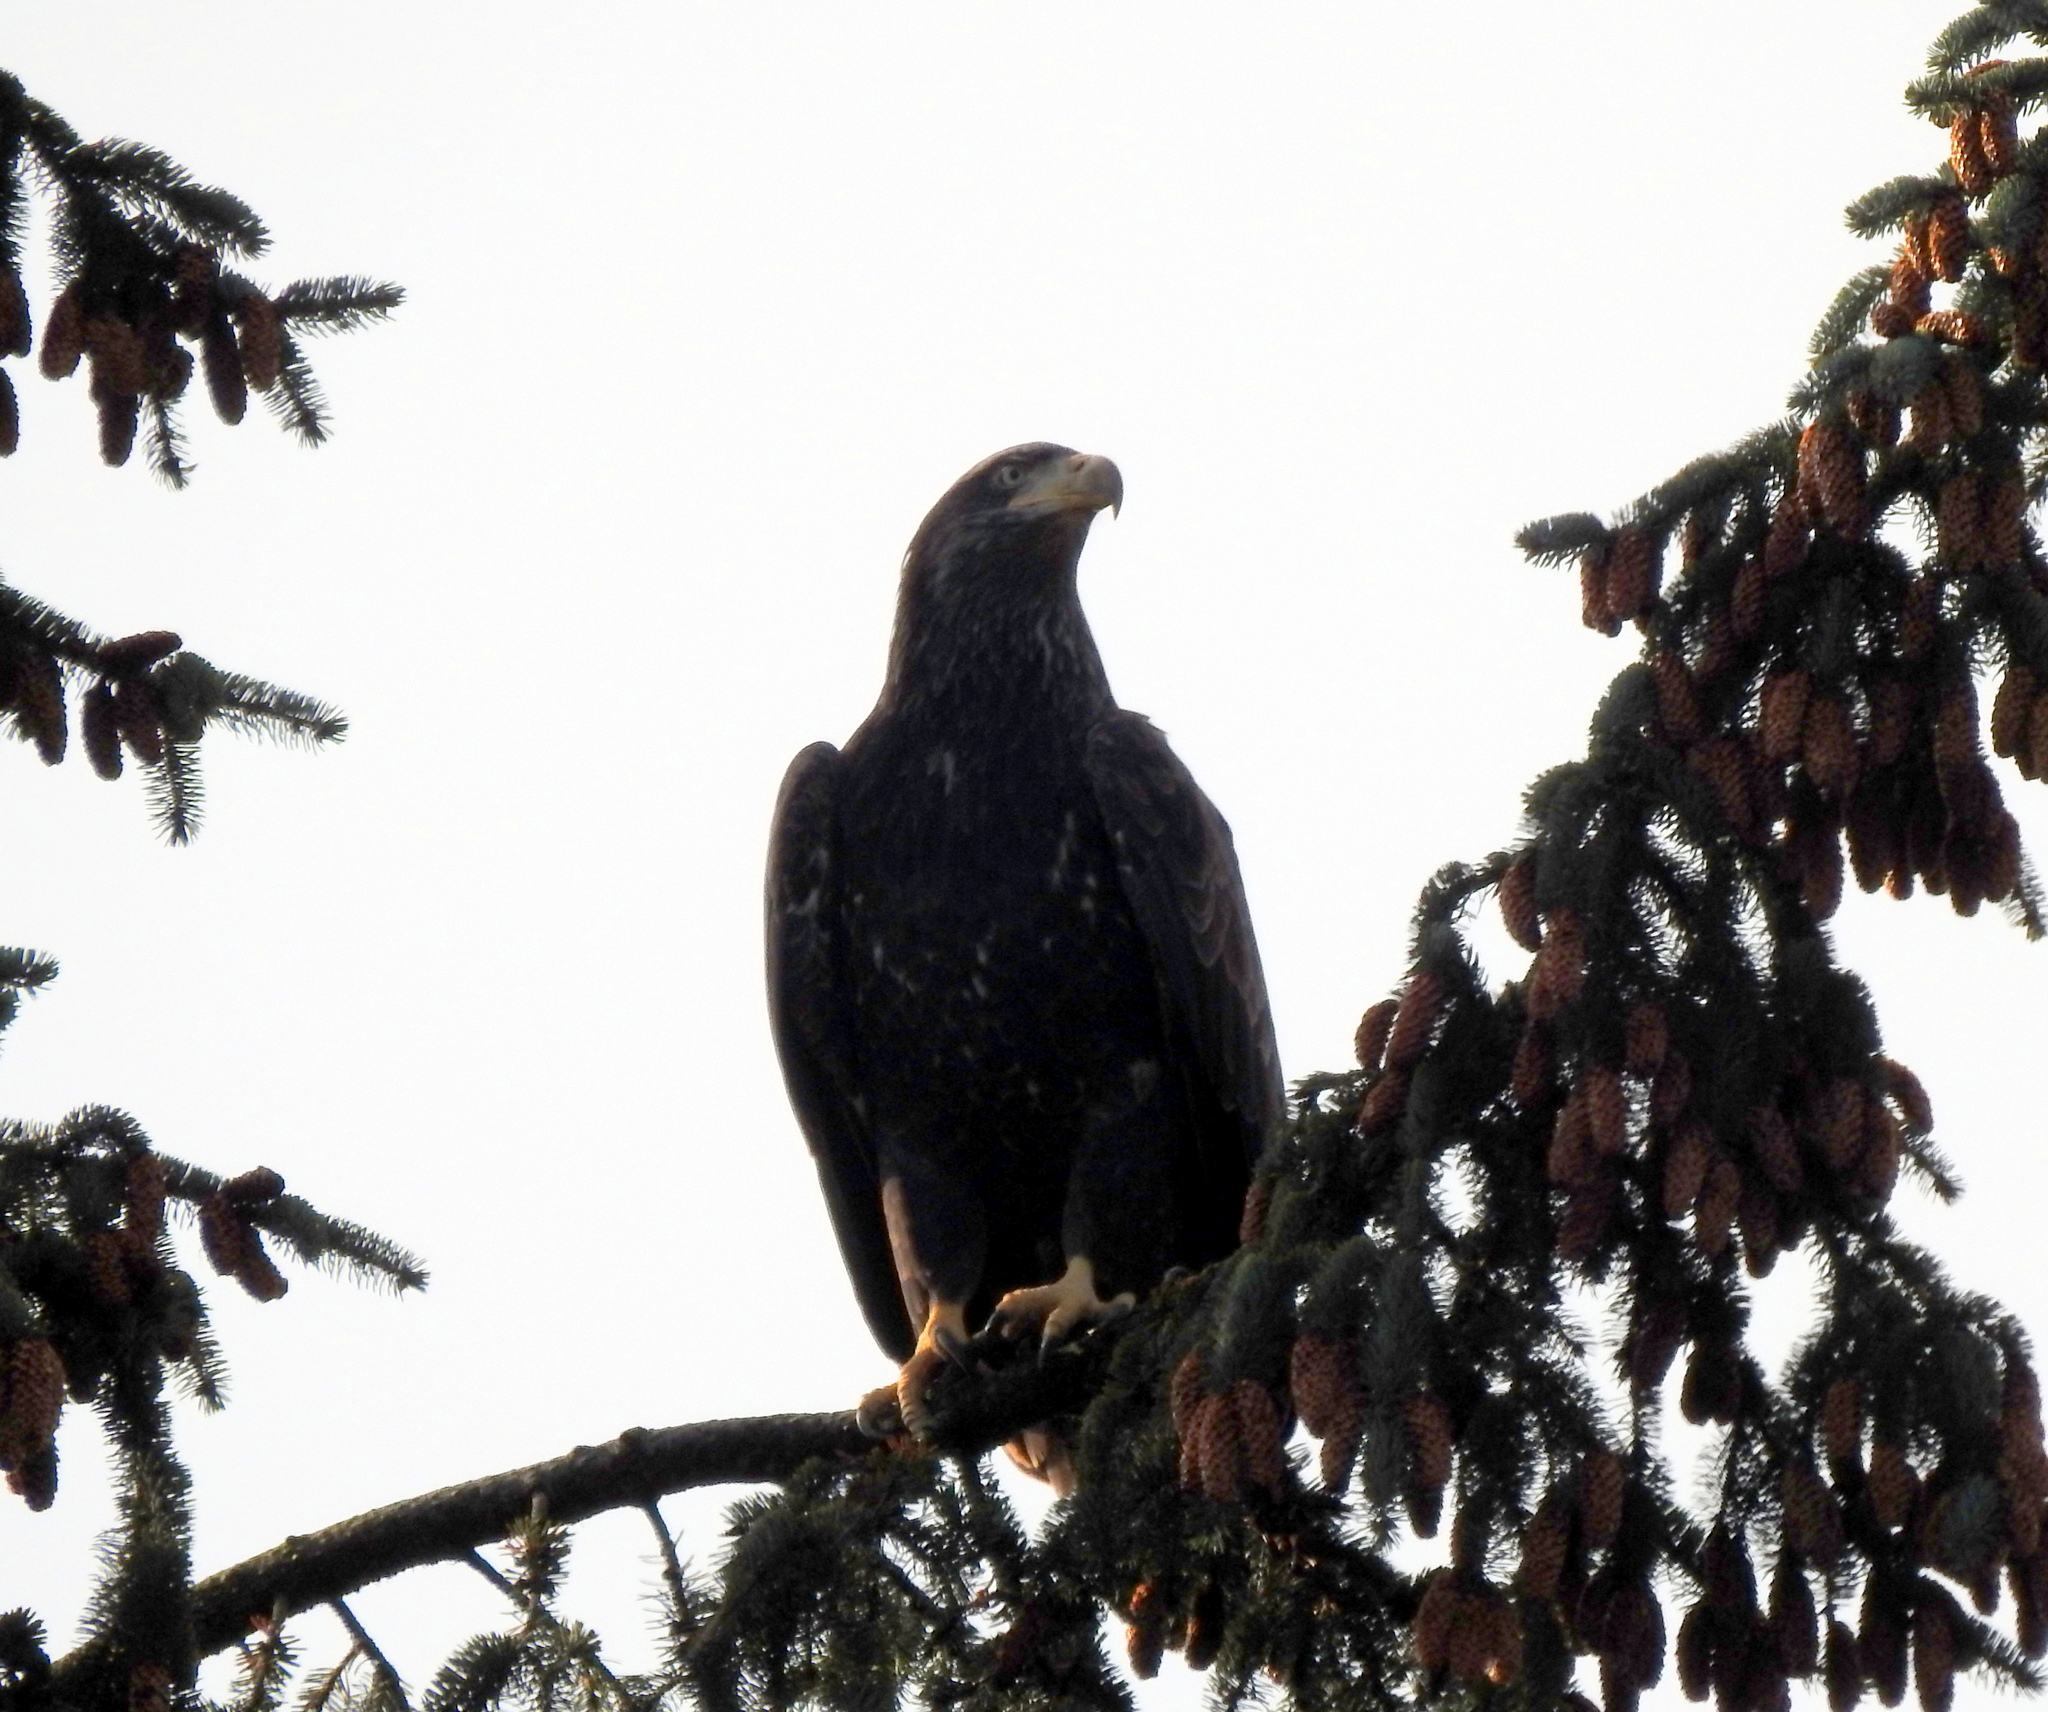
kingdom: Animalia
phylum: Chordata
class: Aves
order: Accipitriformes
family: Accipitridae
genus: Haliaeetus
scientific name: Haliaeetus leucocephalus
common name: Bald eagle
